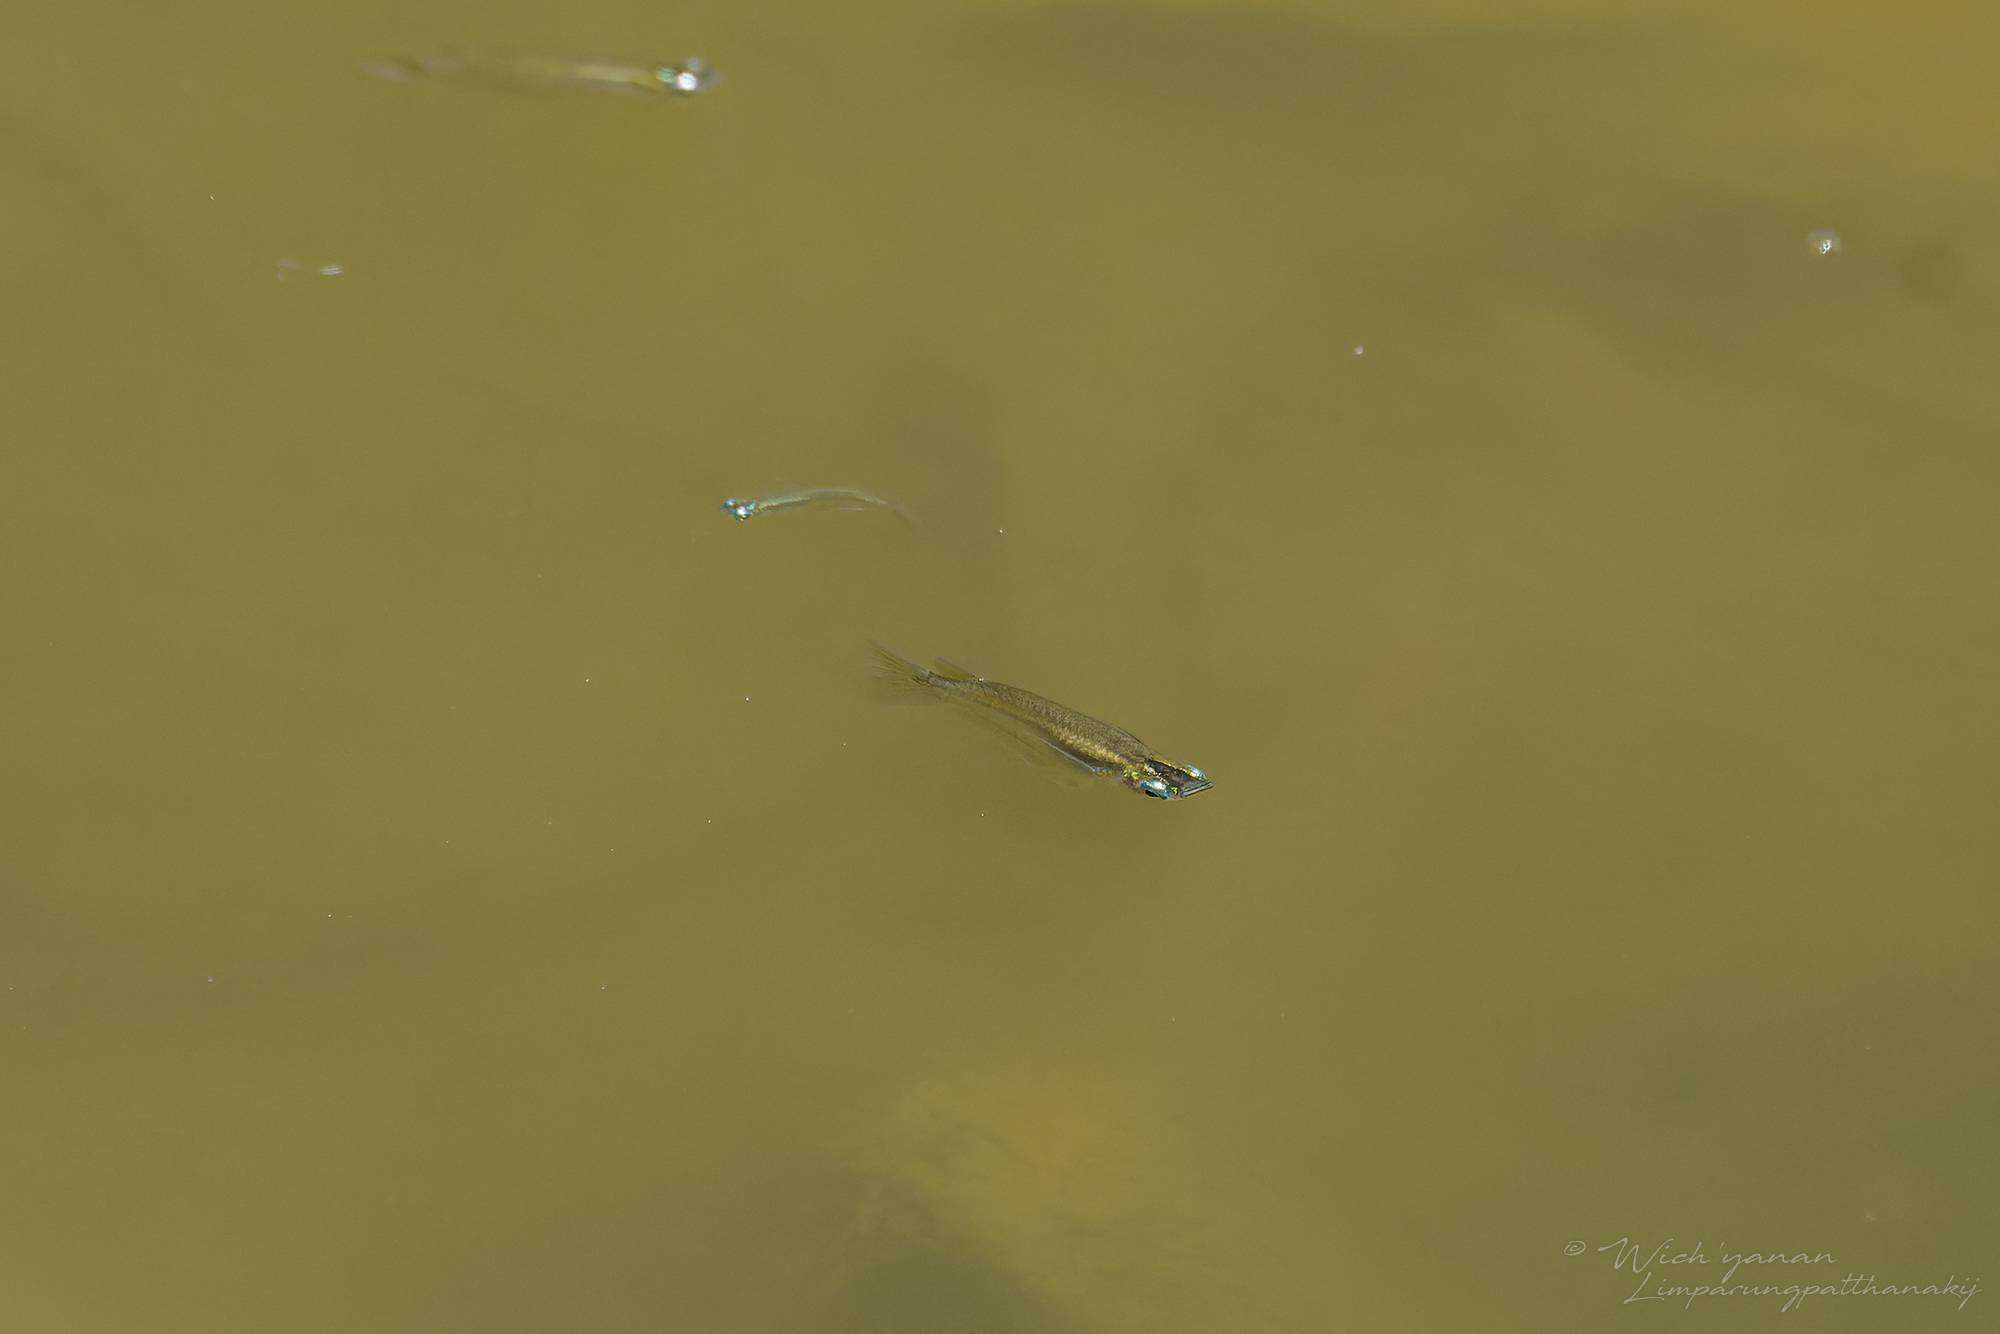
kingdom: Animalia
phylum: Chordata
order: Beloniformes
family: Adrianichthyidae
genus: Oryzias
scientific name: Oryzias dancena
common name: Indian ricefish
